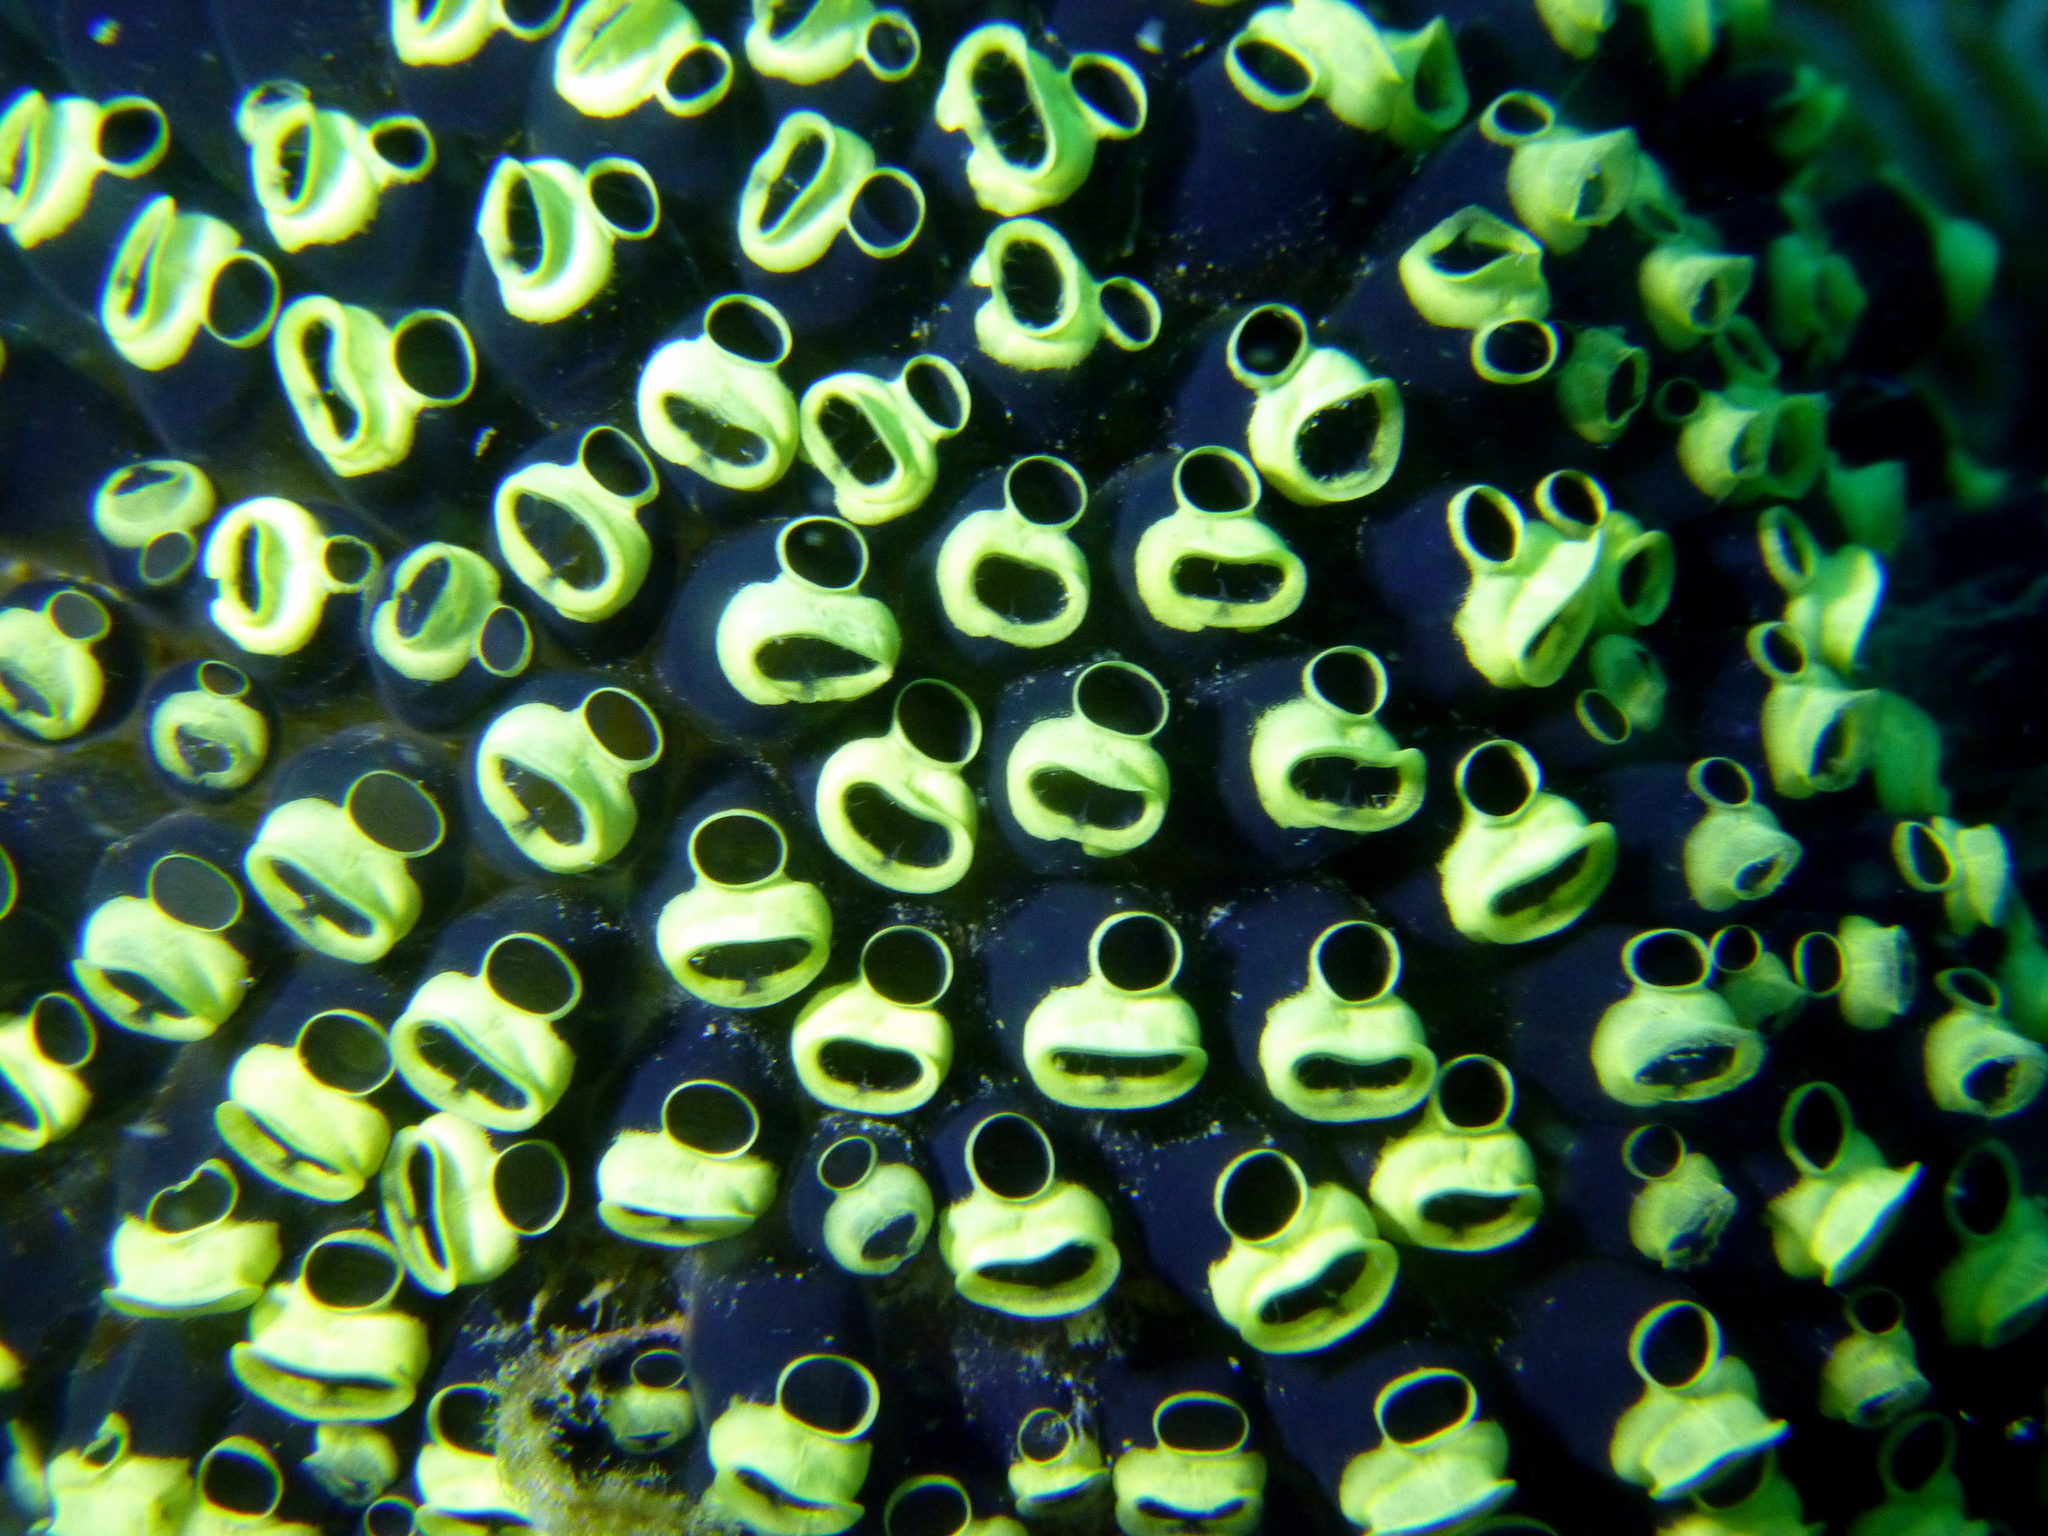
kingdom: Animalia
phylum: Chordata
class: Ascidiacea
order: Aplousobranchia
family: Clavelinidae
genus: Clavelina
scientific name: Clavelina robusta
